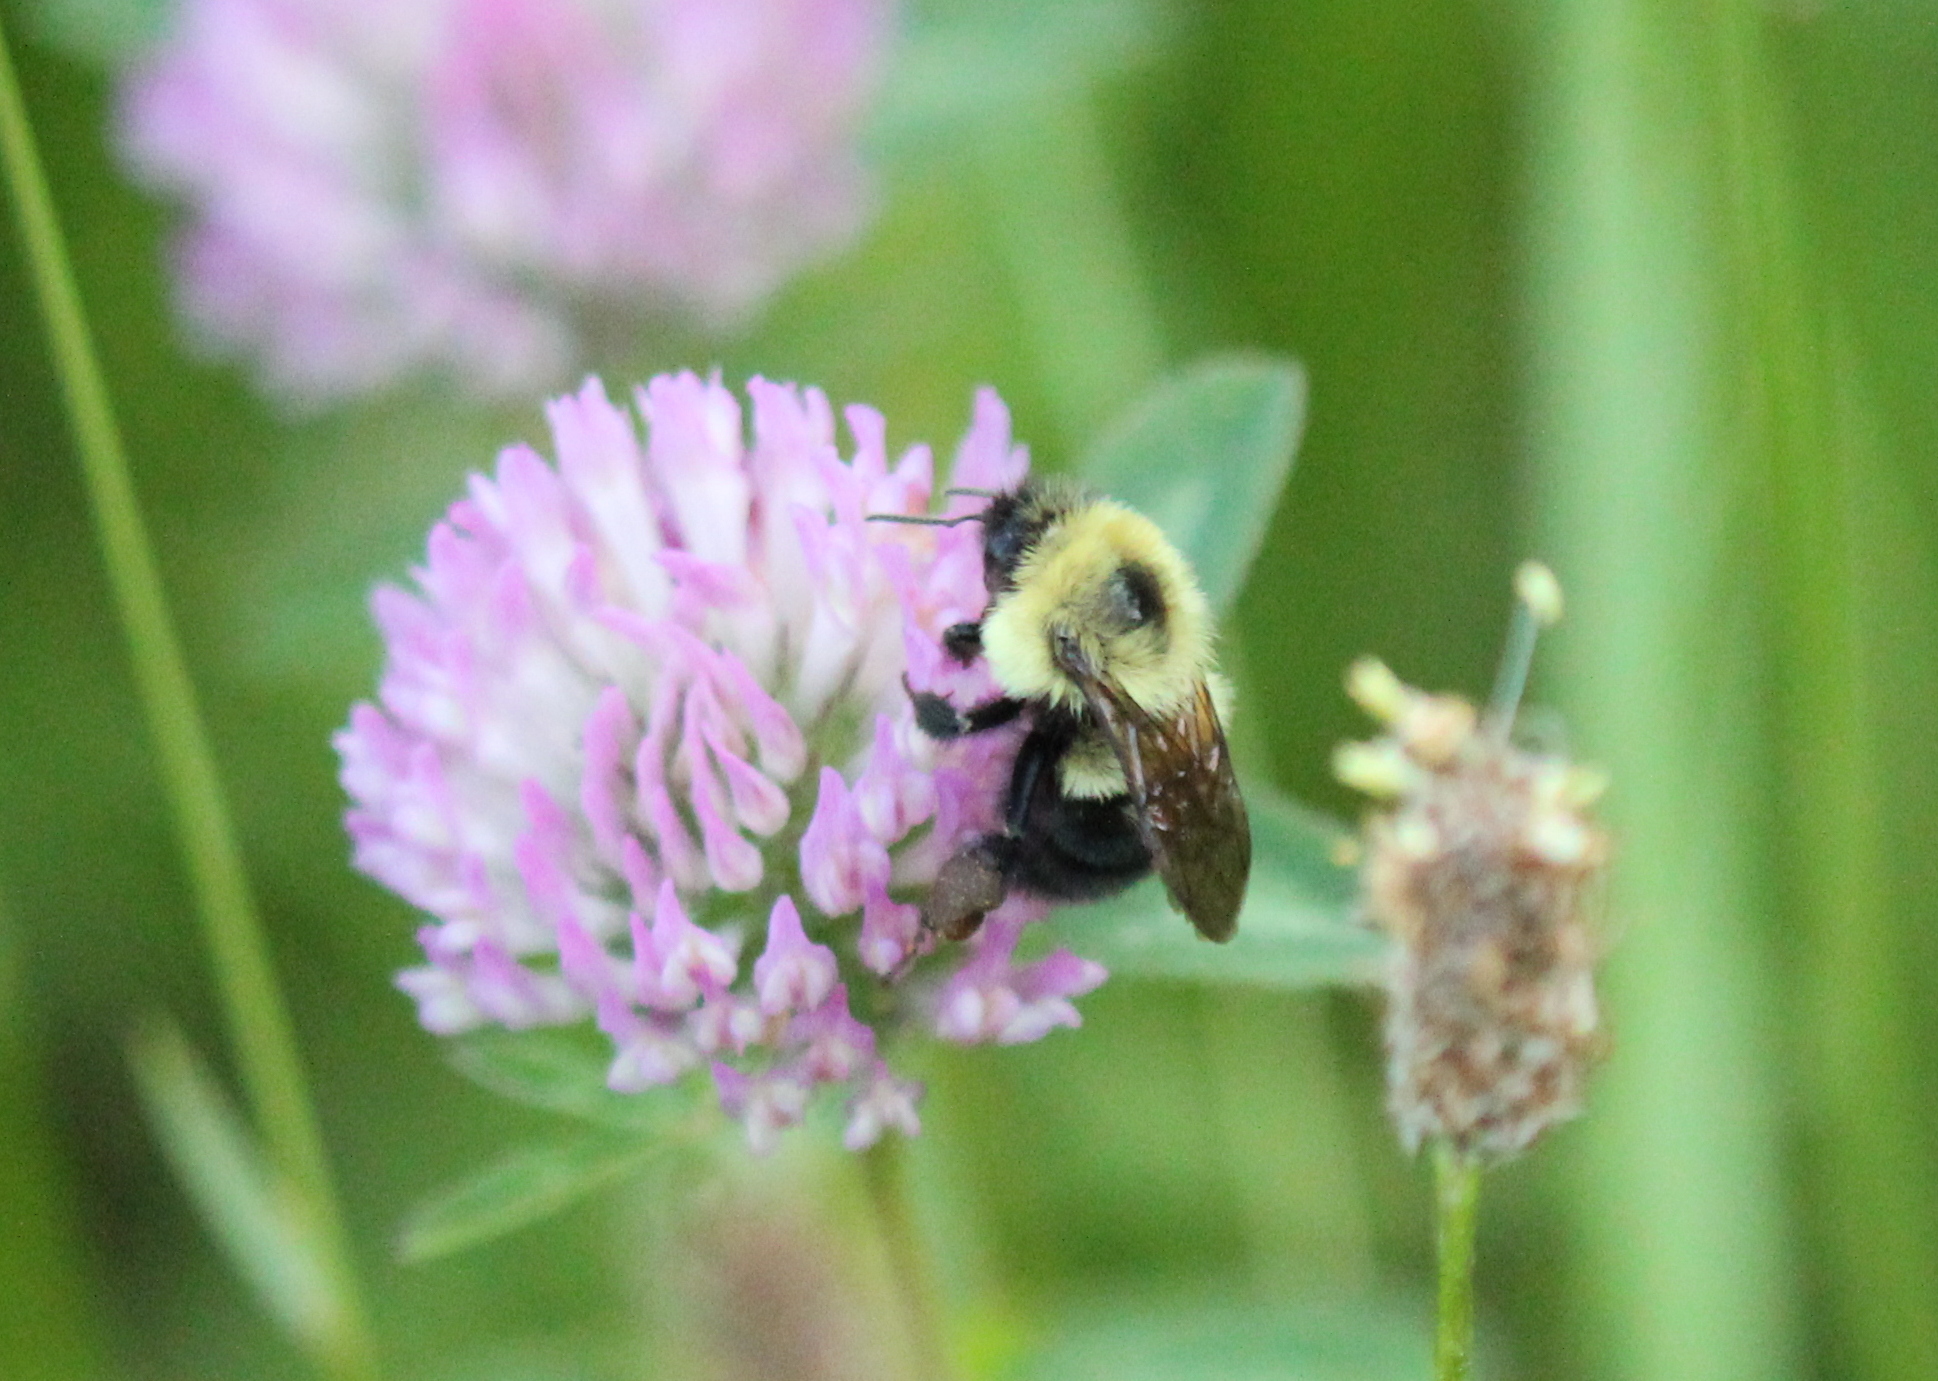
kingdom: Animalia
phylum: Arthropoda
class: Insecta
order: Hymenoptera
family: Apidae
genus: Bombus
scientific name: Bombus bimaculatus
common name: Two-spotted bumble bee
